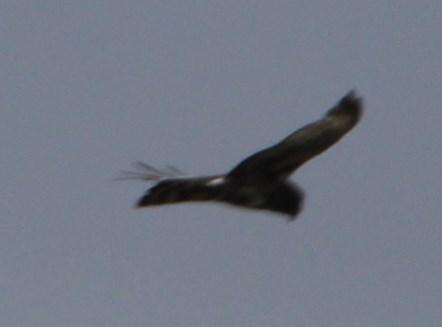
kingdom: Animalia
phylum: Chordata
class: Aves
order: Accipitriformes
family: Accipitridae
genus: Circus
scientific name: Circus maurus
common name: Black harrier
